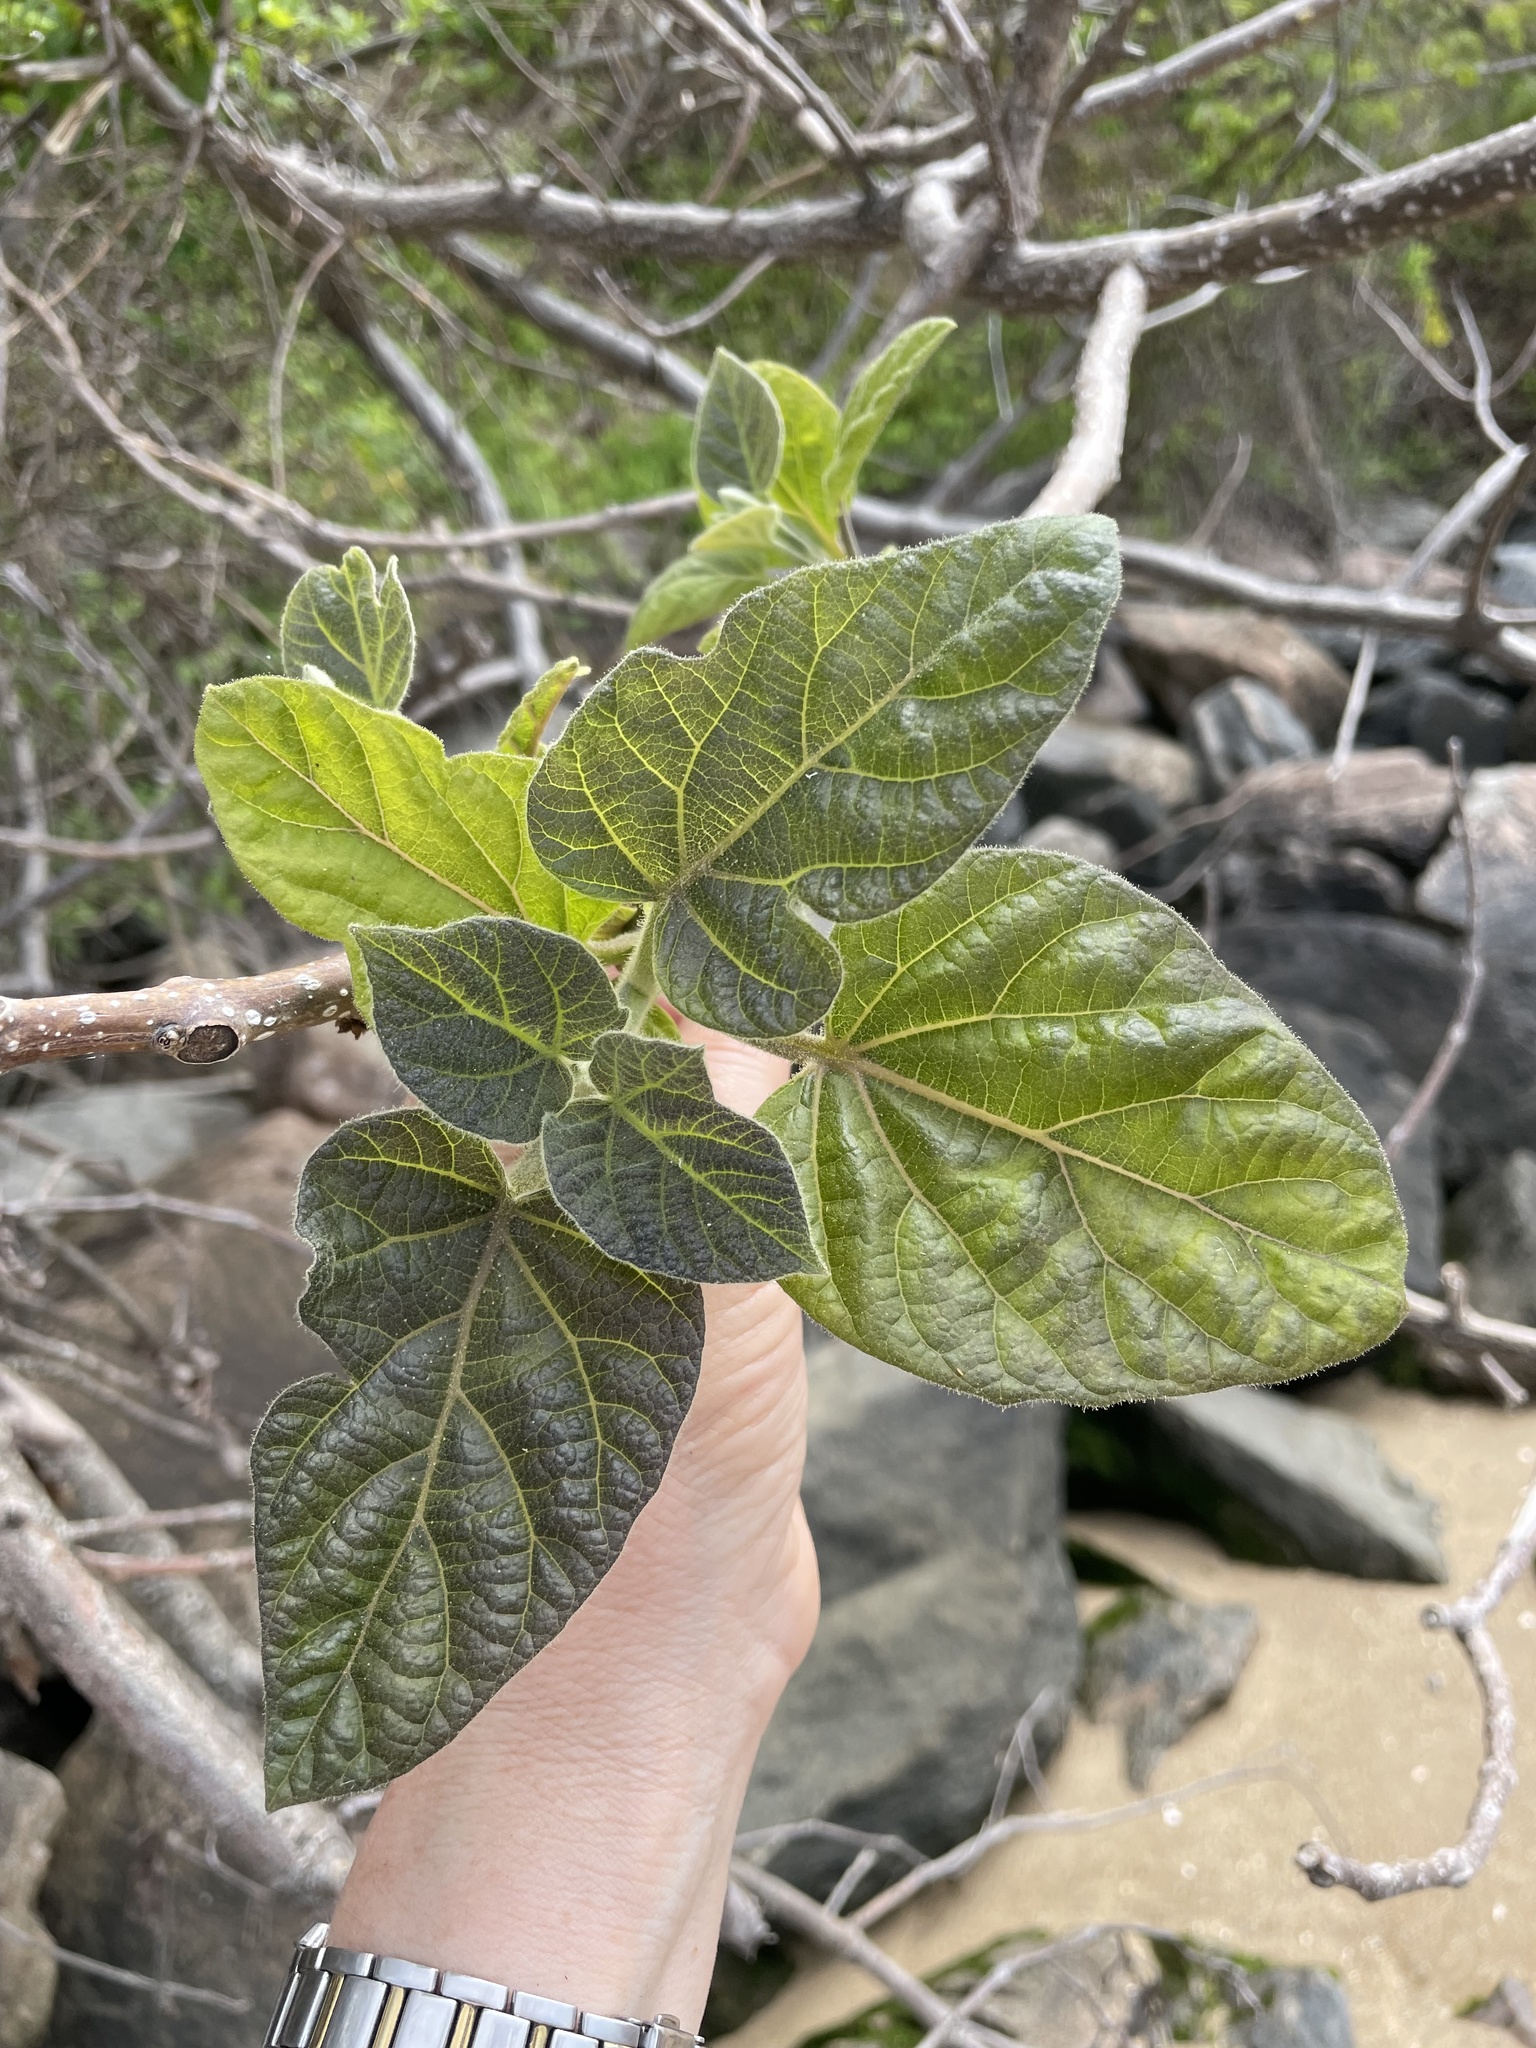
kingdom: Plantae
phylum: Tracheophyta
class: Magnoliopsida
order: Lamiales
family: Paulowniaceae
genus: Paulownia
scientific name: Paulownia tomentosa
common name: Foxglove-tree
